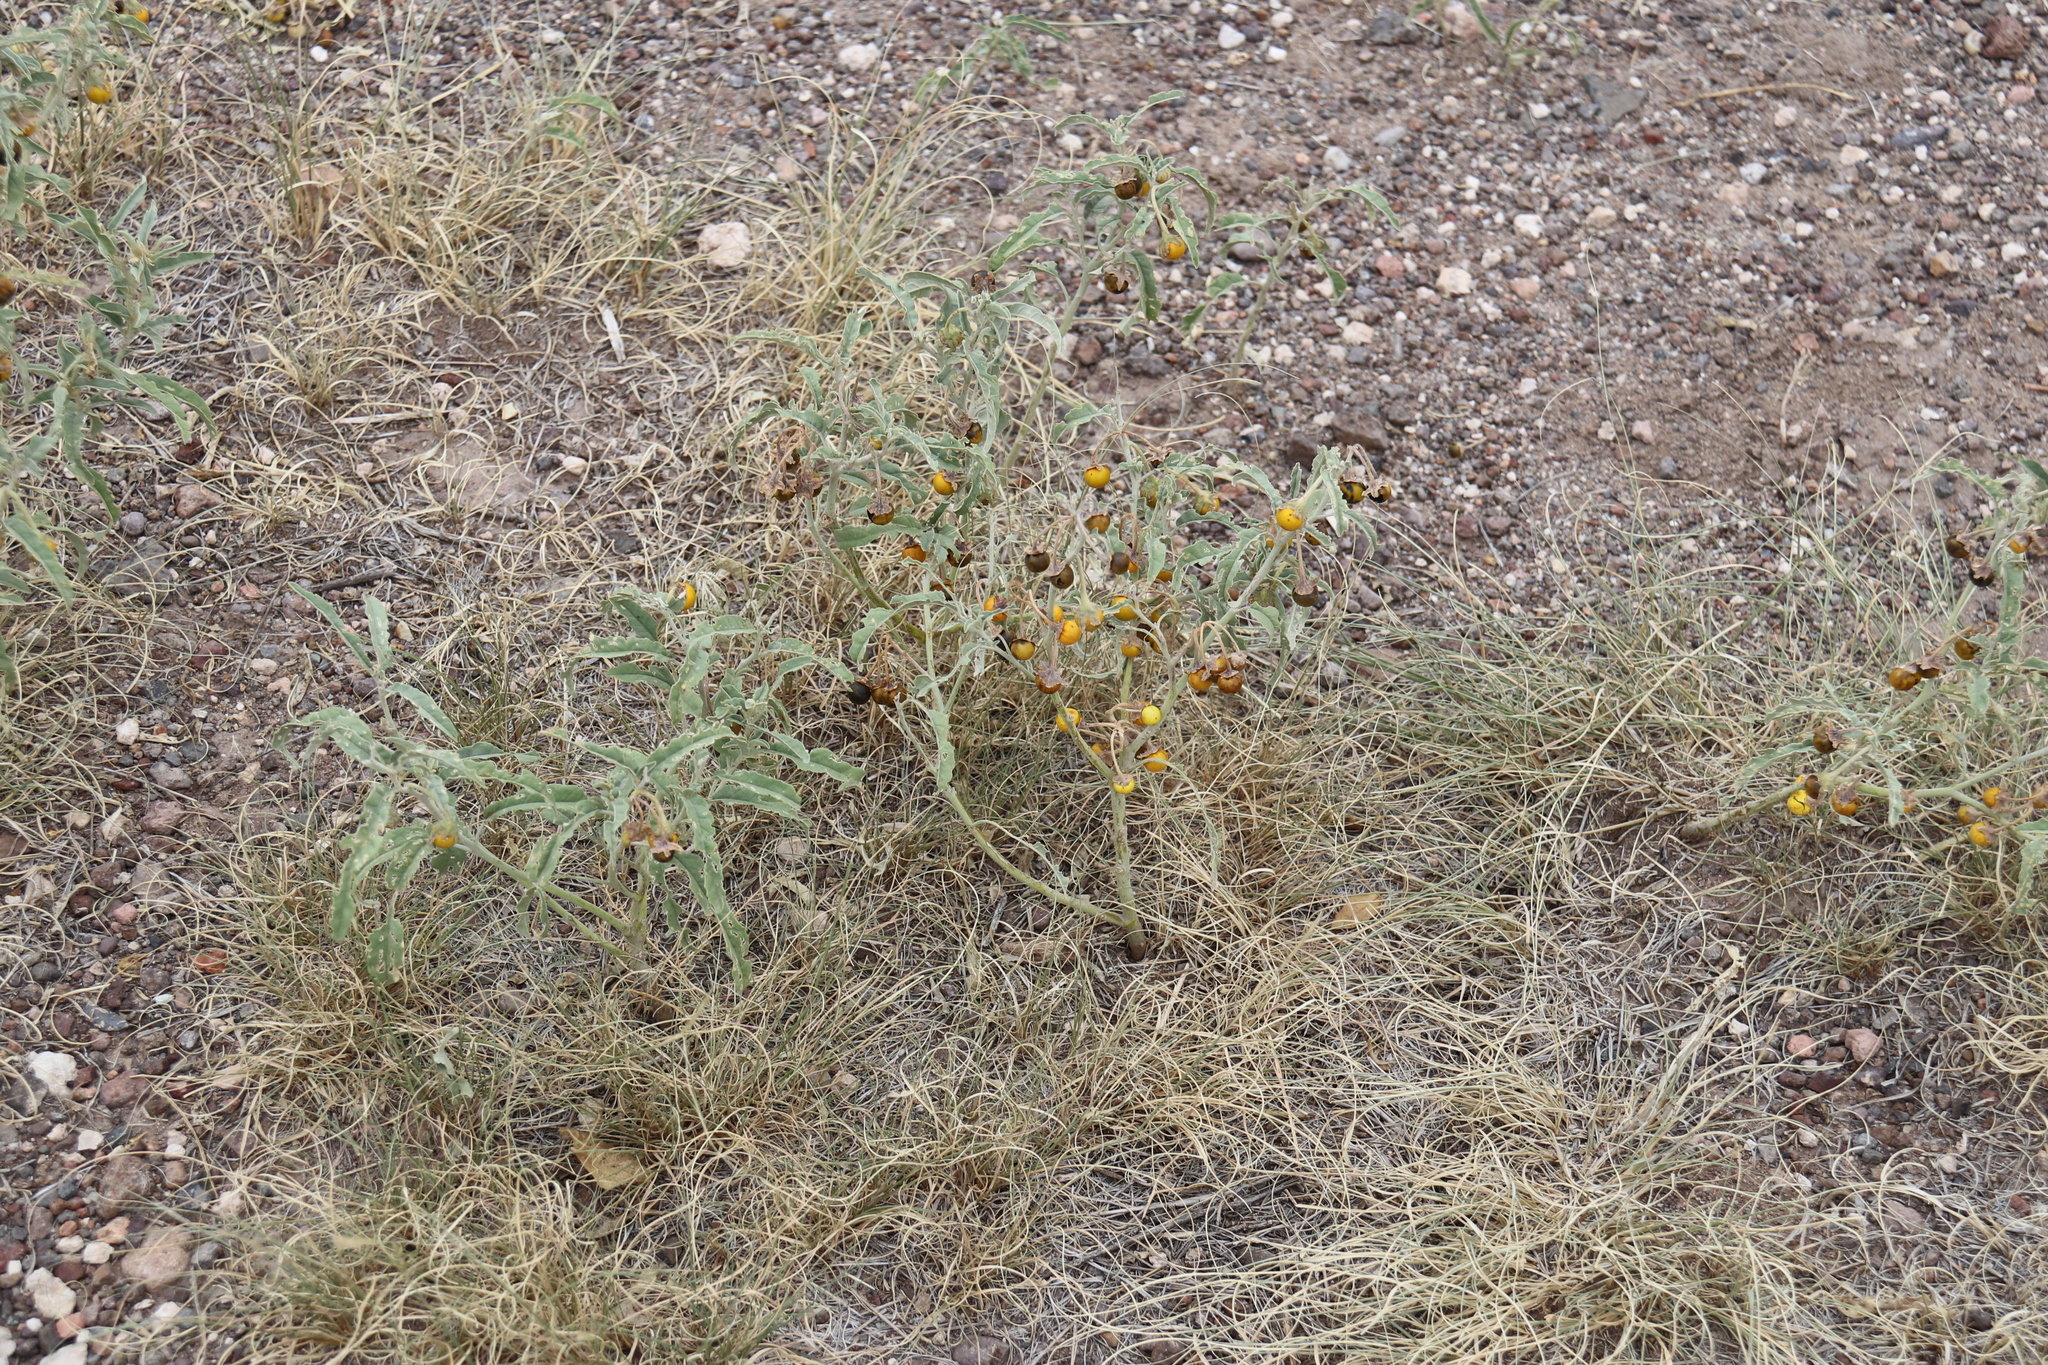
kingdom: Plantae
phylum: Tracheophyta
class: Magnoliopsida
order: Solanales
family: Solanaceae
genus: Solanum
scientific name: Solanum elaeagnifolium
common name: Silverleaf nightshade
